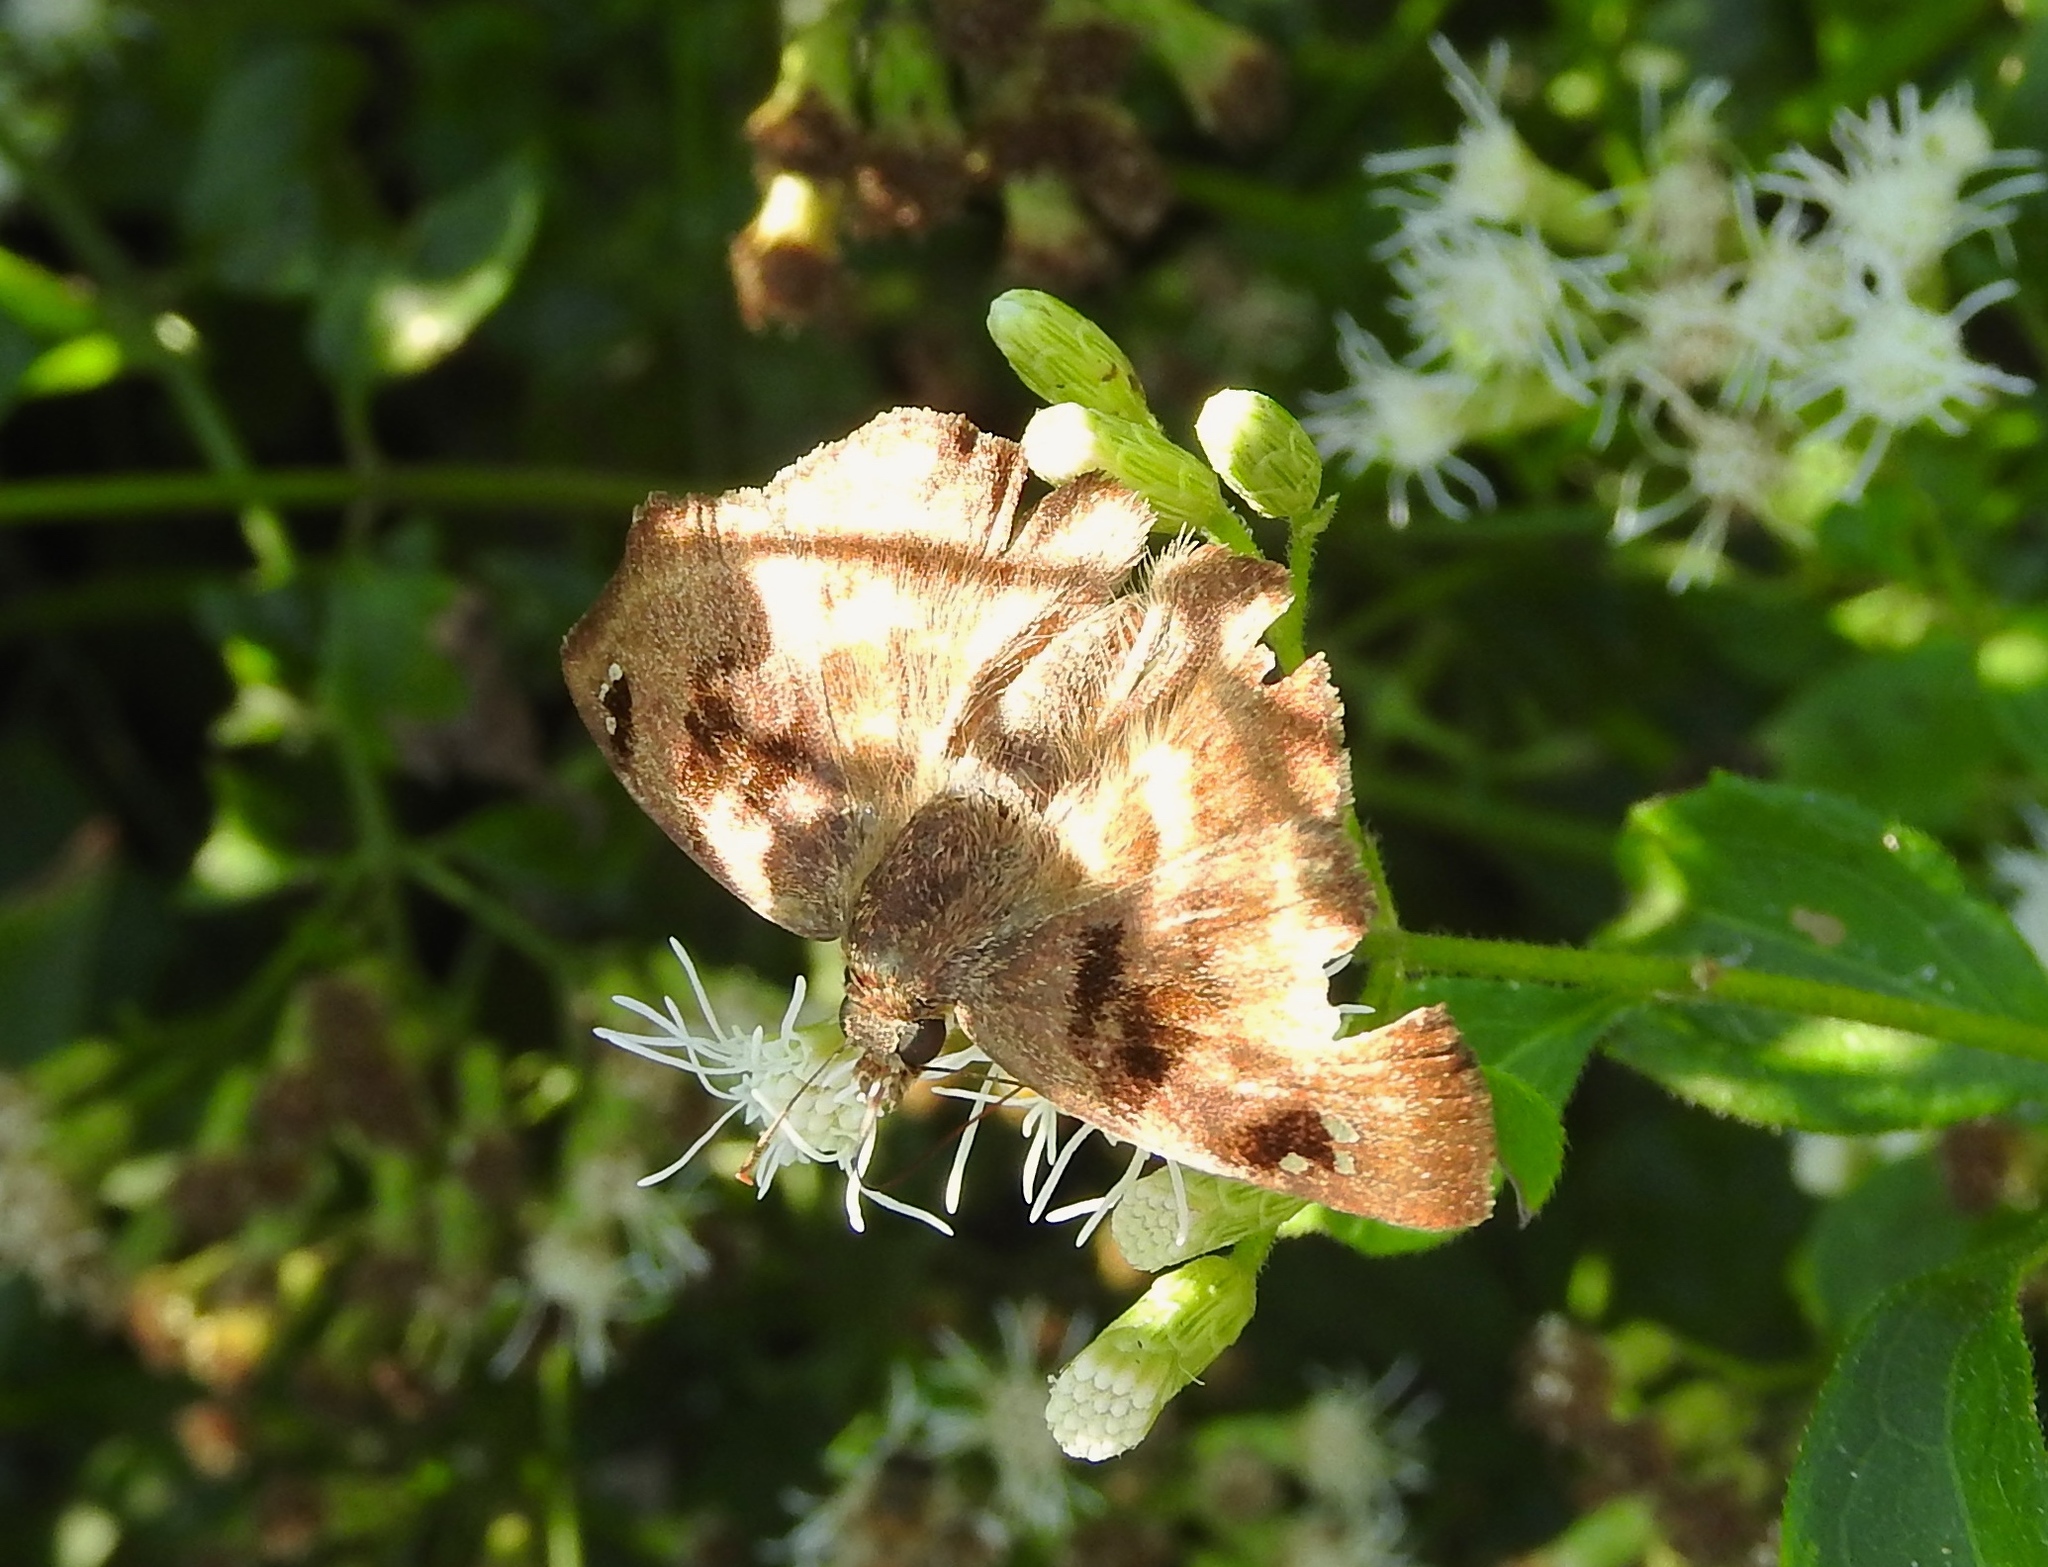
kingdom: Animalia
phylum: Arthropoda
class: Insecta
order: Lepidoptera
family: Hesperiidae
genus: Arteurotia
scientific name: Arteurotia tractipennis
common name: Starred skipper
